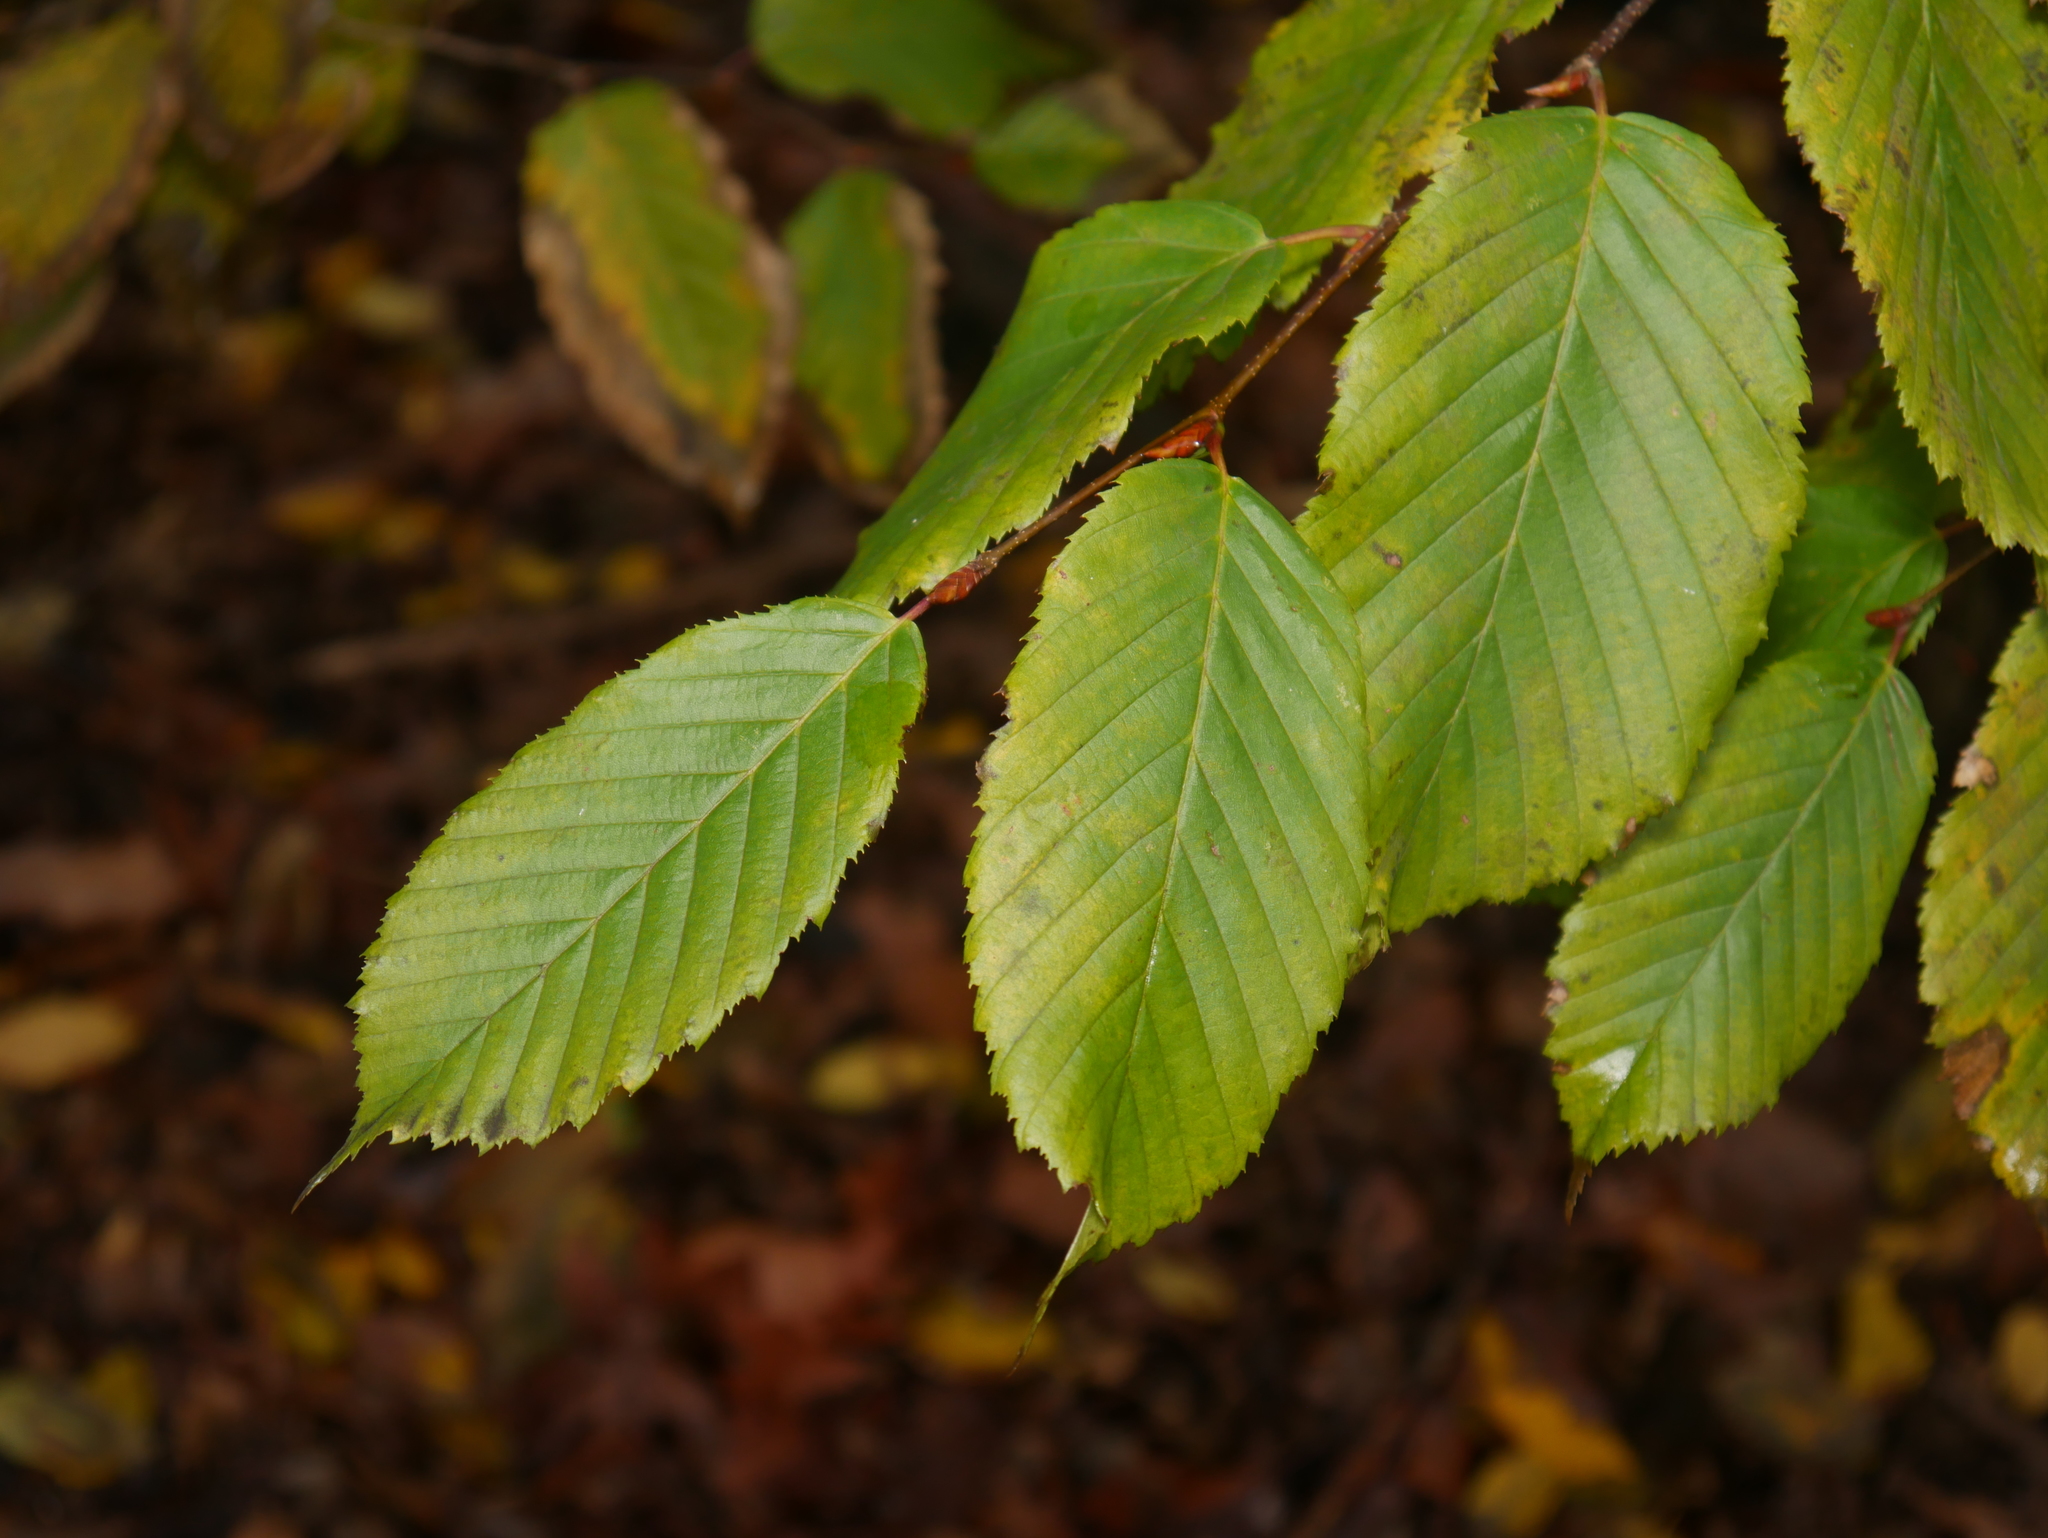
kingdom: Plantae
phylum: Tracheophyta
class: Magnoliopsida
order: Fagales
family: Betulaceae
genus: Carpinus
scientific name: Carpinus betulus
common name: Hornbeam
